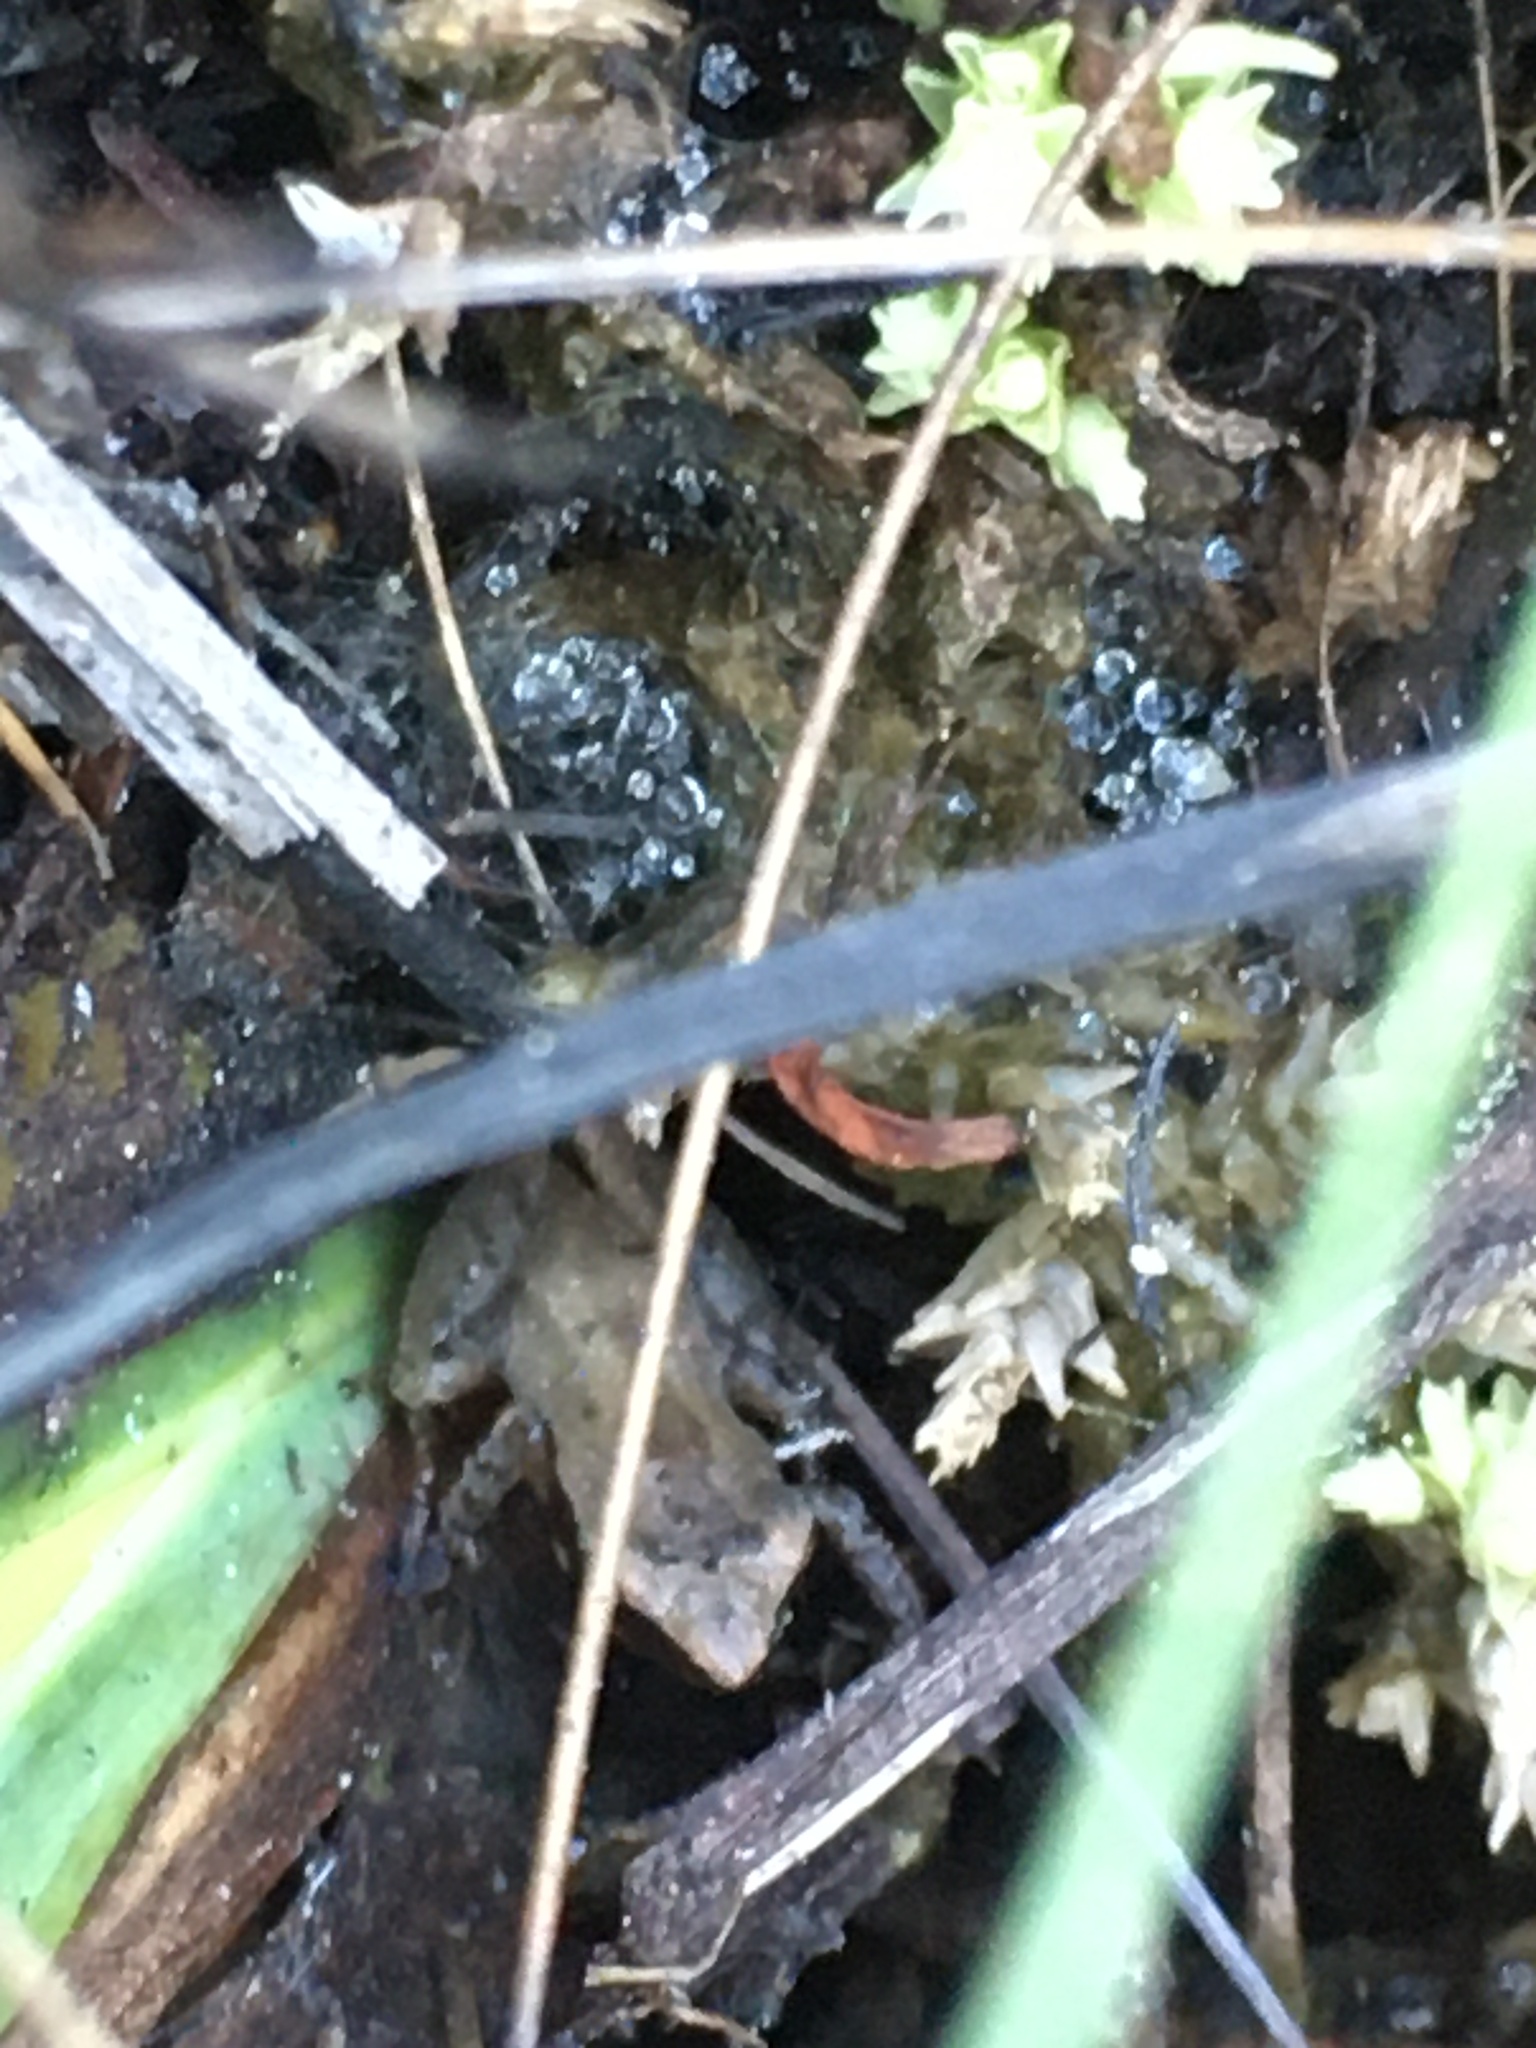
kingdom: Animalia
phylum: Chordata
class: Amphibia
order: Anura
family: Hylidae
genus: Pseudacris
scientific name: Pseudacris ocularis
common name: Little grass frog
